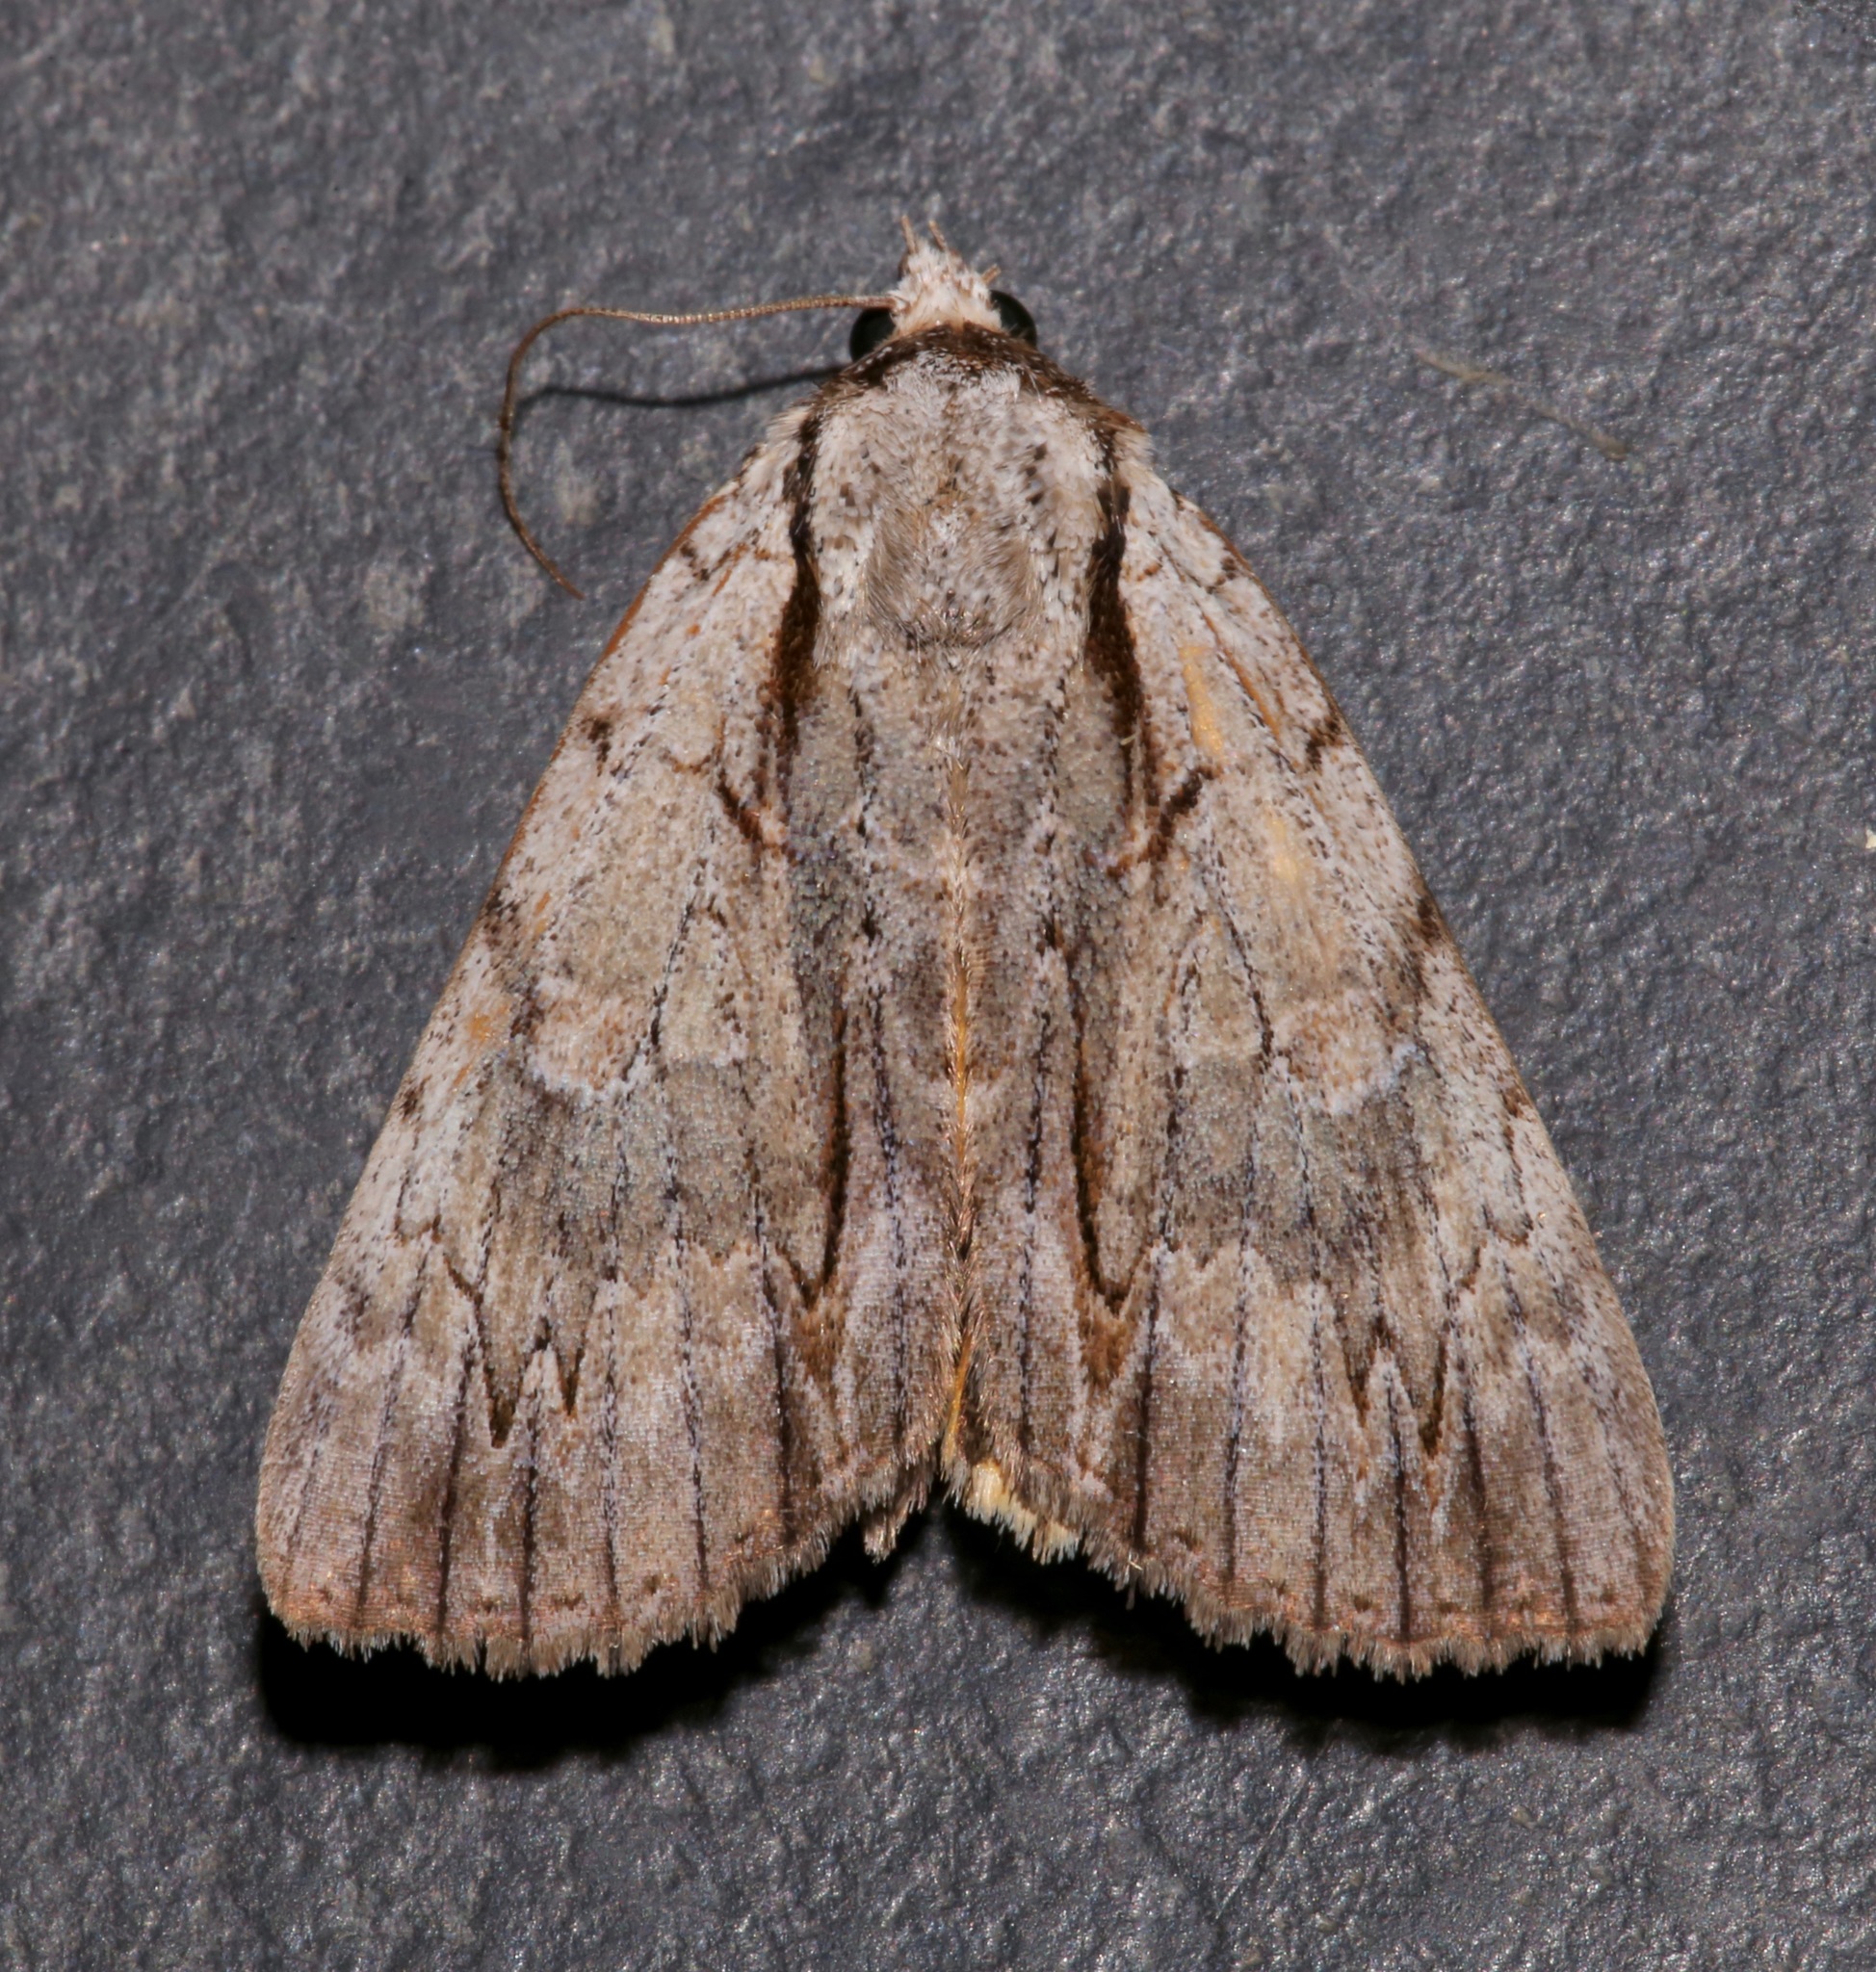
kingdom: Animalia
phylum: Arthropoda
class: Insecta
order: Lepidoptera
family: Erebidae
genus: Catocala
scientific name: Catocala clintonii
